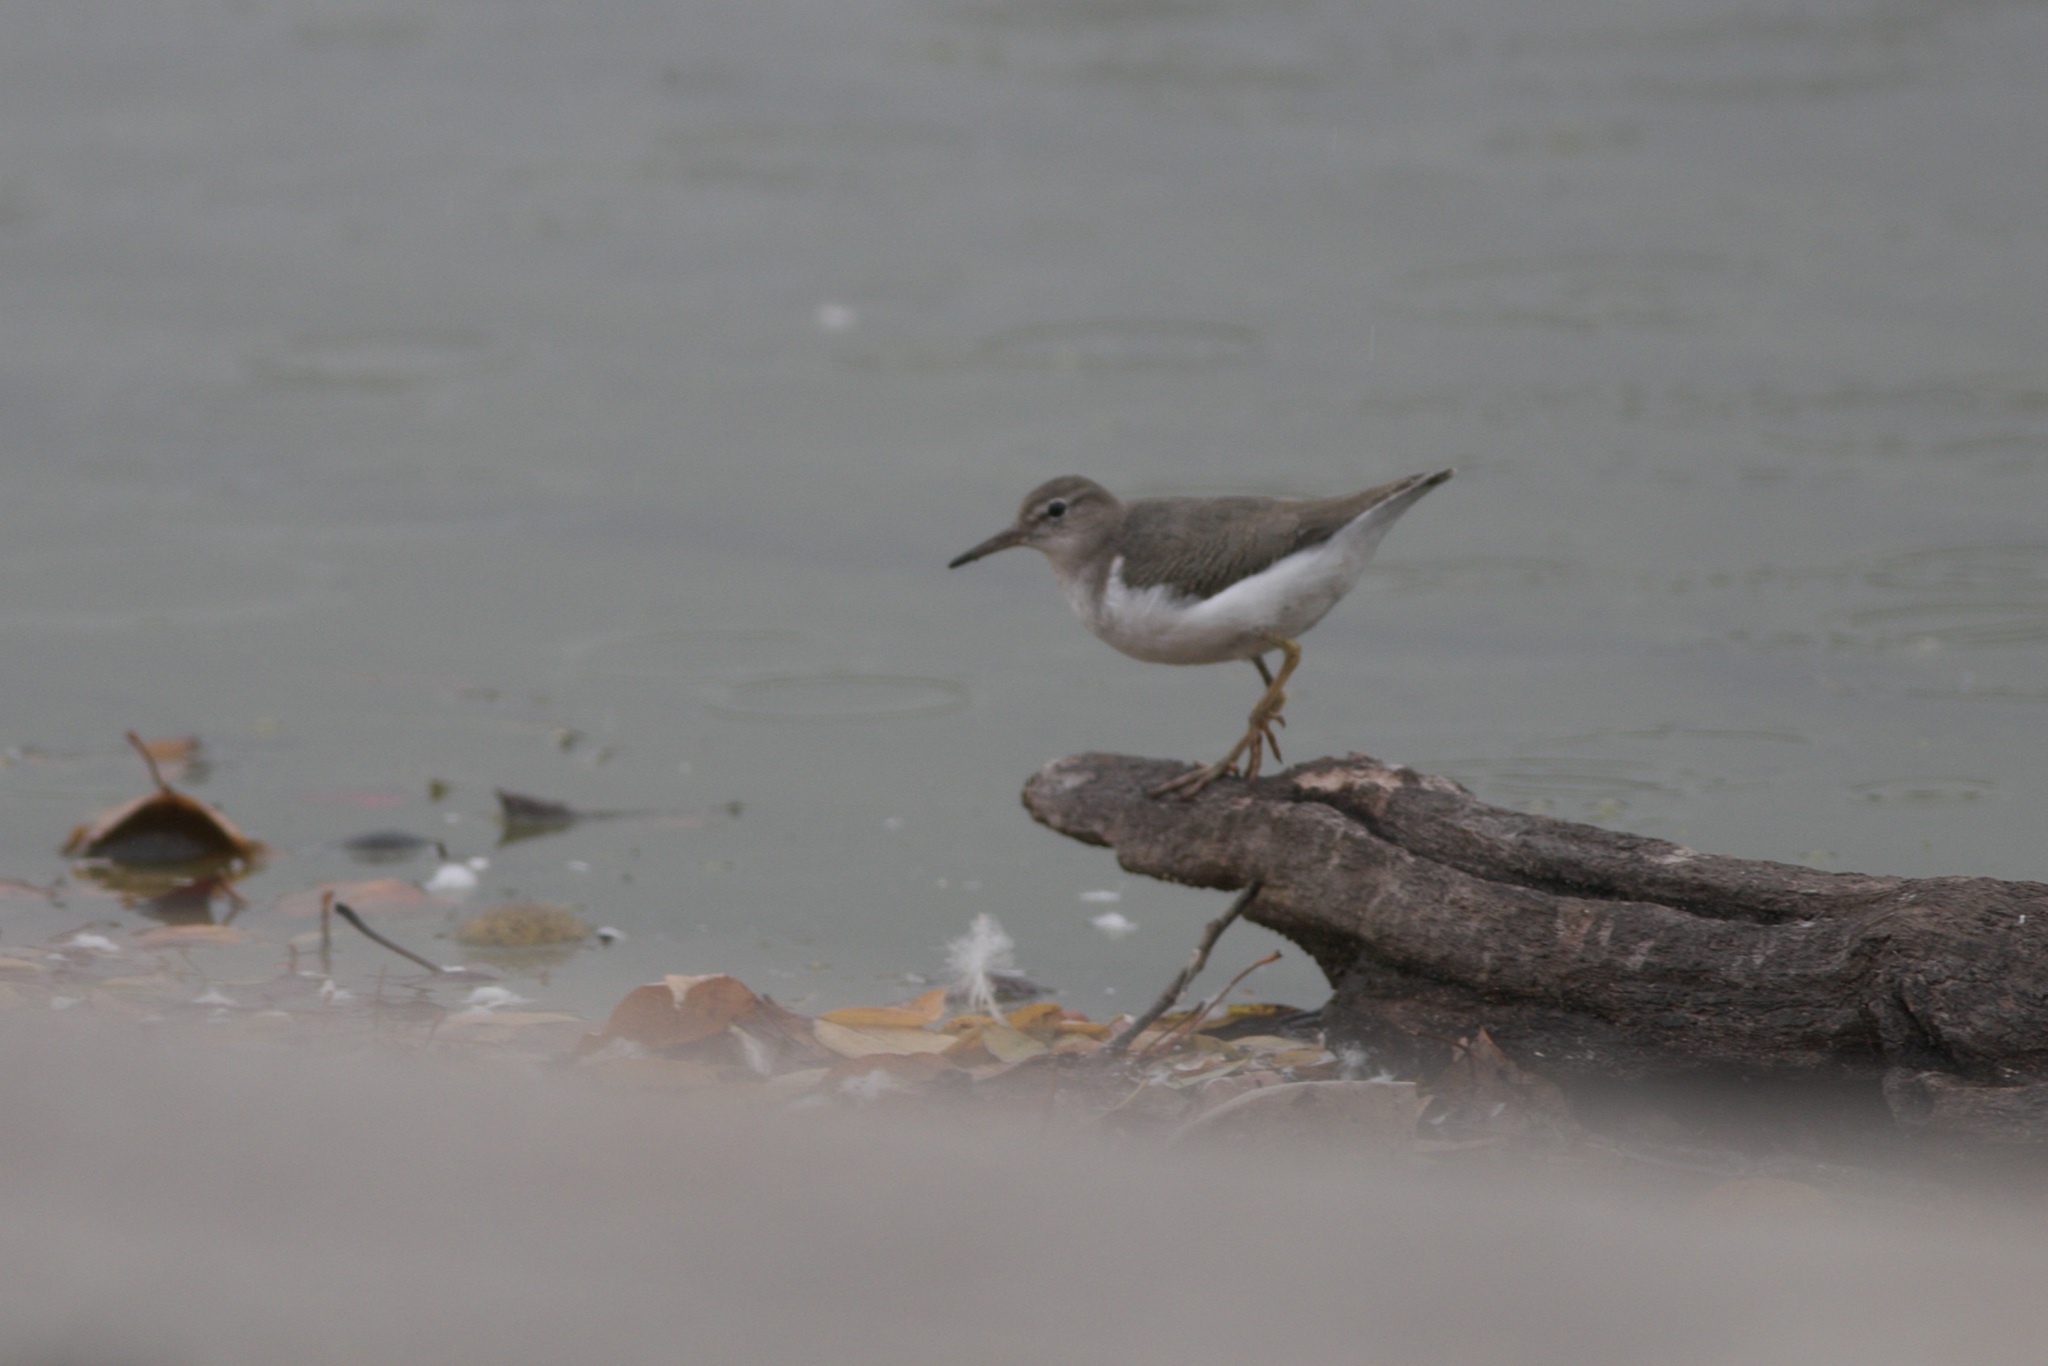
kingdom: Animalia
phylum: Chordata
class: Aves
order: Charadriiformes
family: Scolopacidae
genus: Actitis
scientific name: Actitis macularius
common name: Spotted sandpiper
